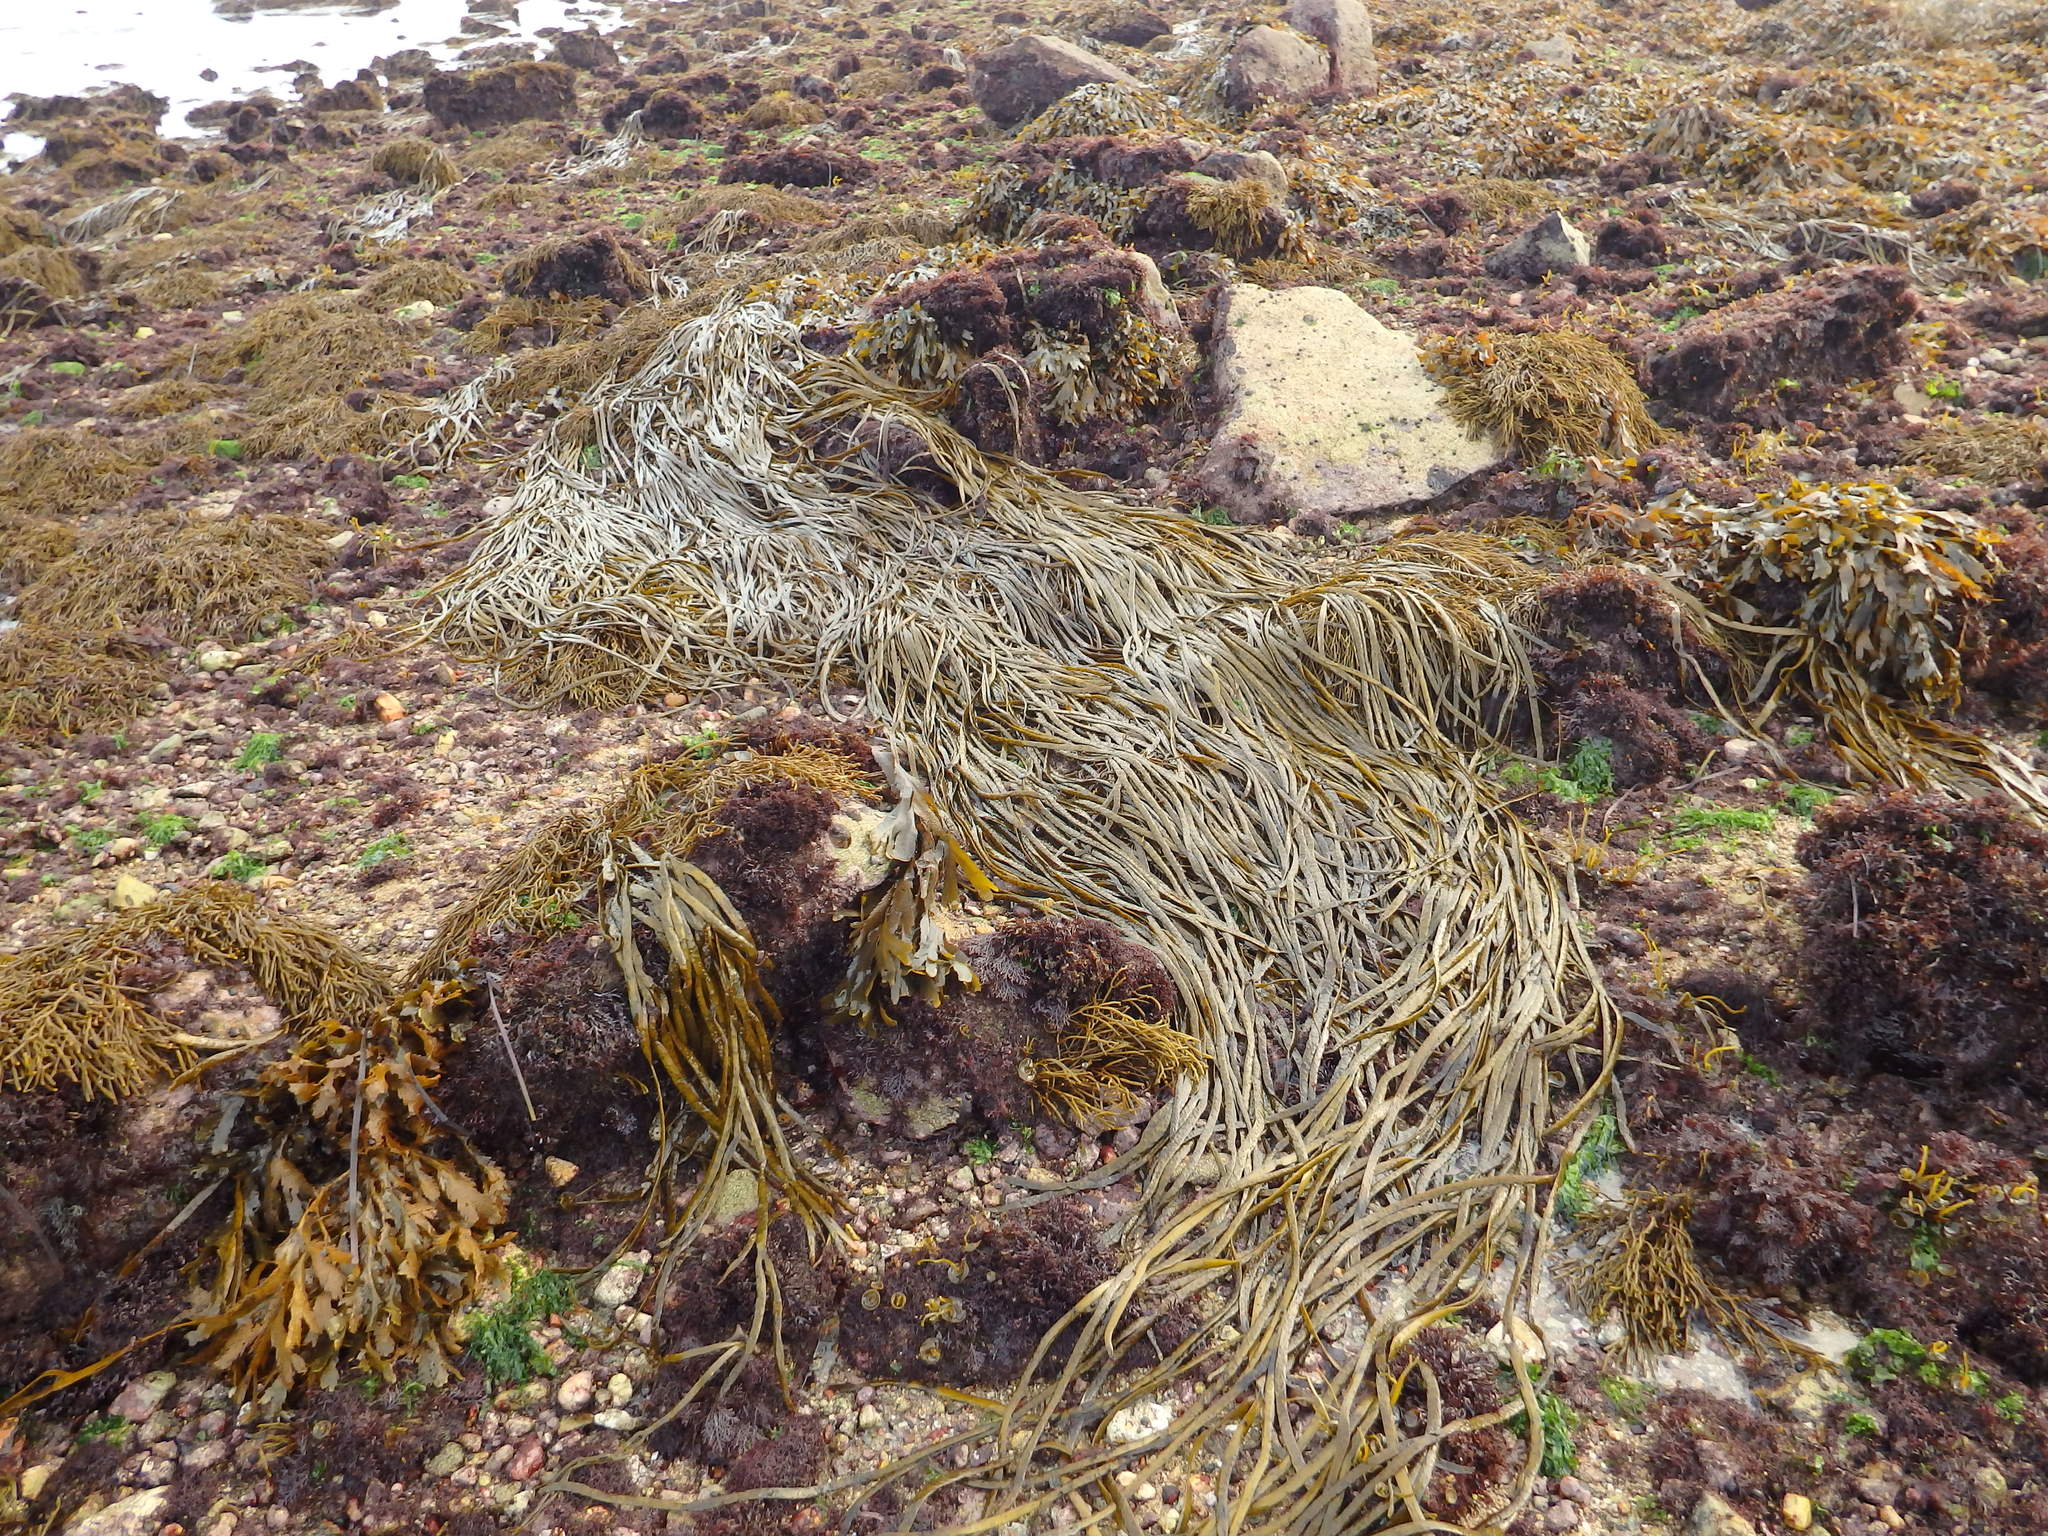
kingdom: Chromista
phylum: Ochrophyta
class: Phaeophyceae
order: Fucales
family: Himanthaliaceae
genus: Himanthalia
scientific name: Himanthalia elongata
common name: Sea-thong
